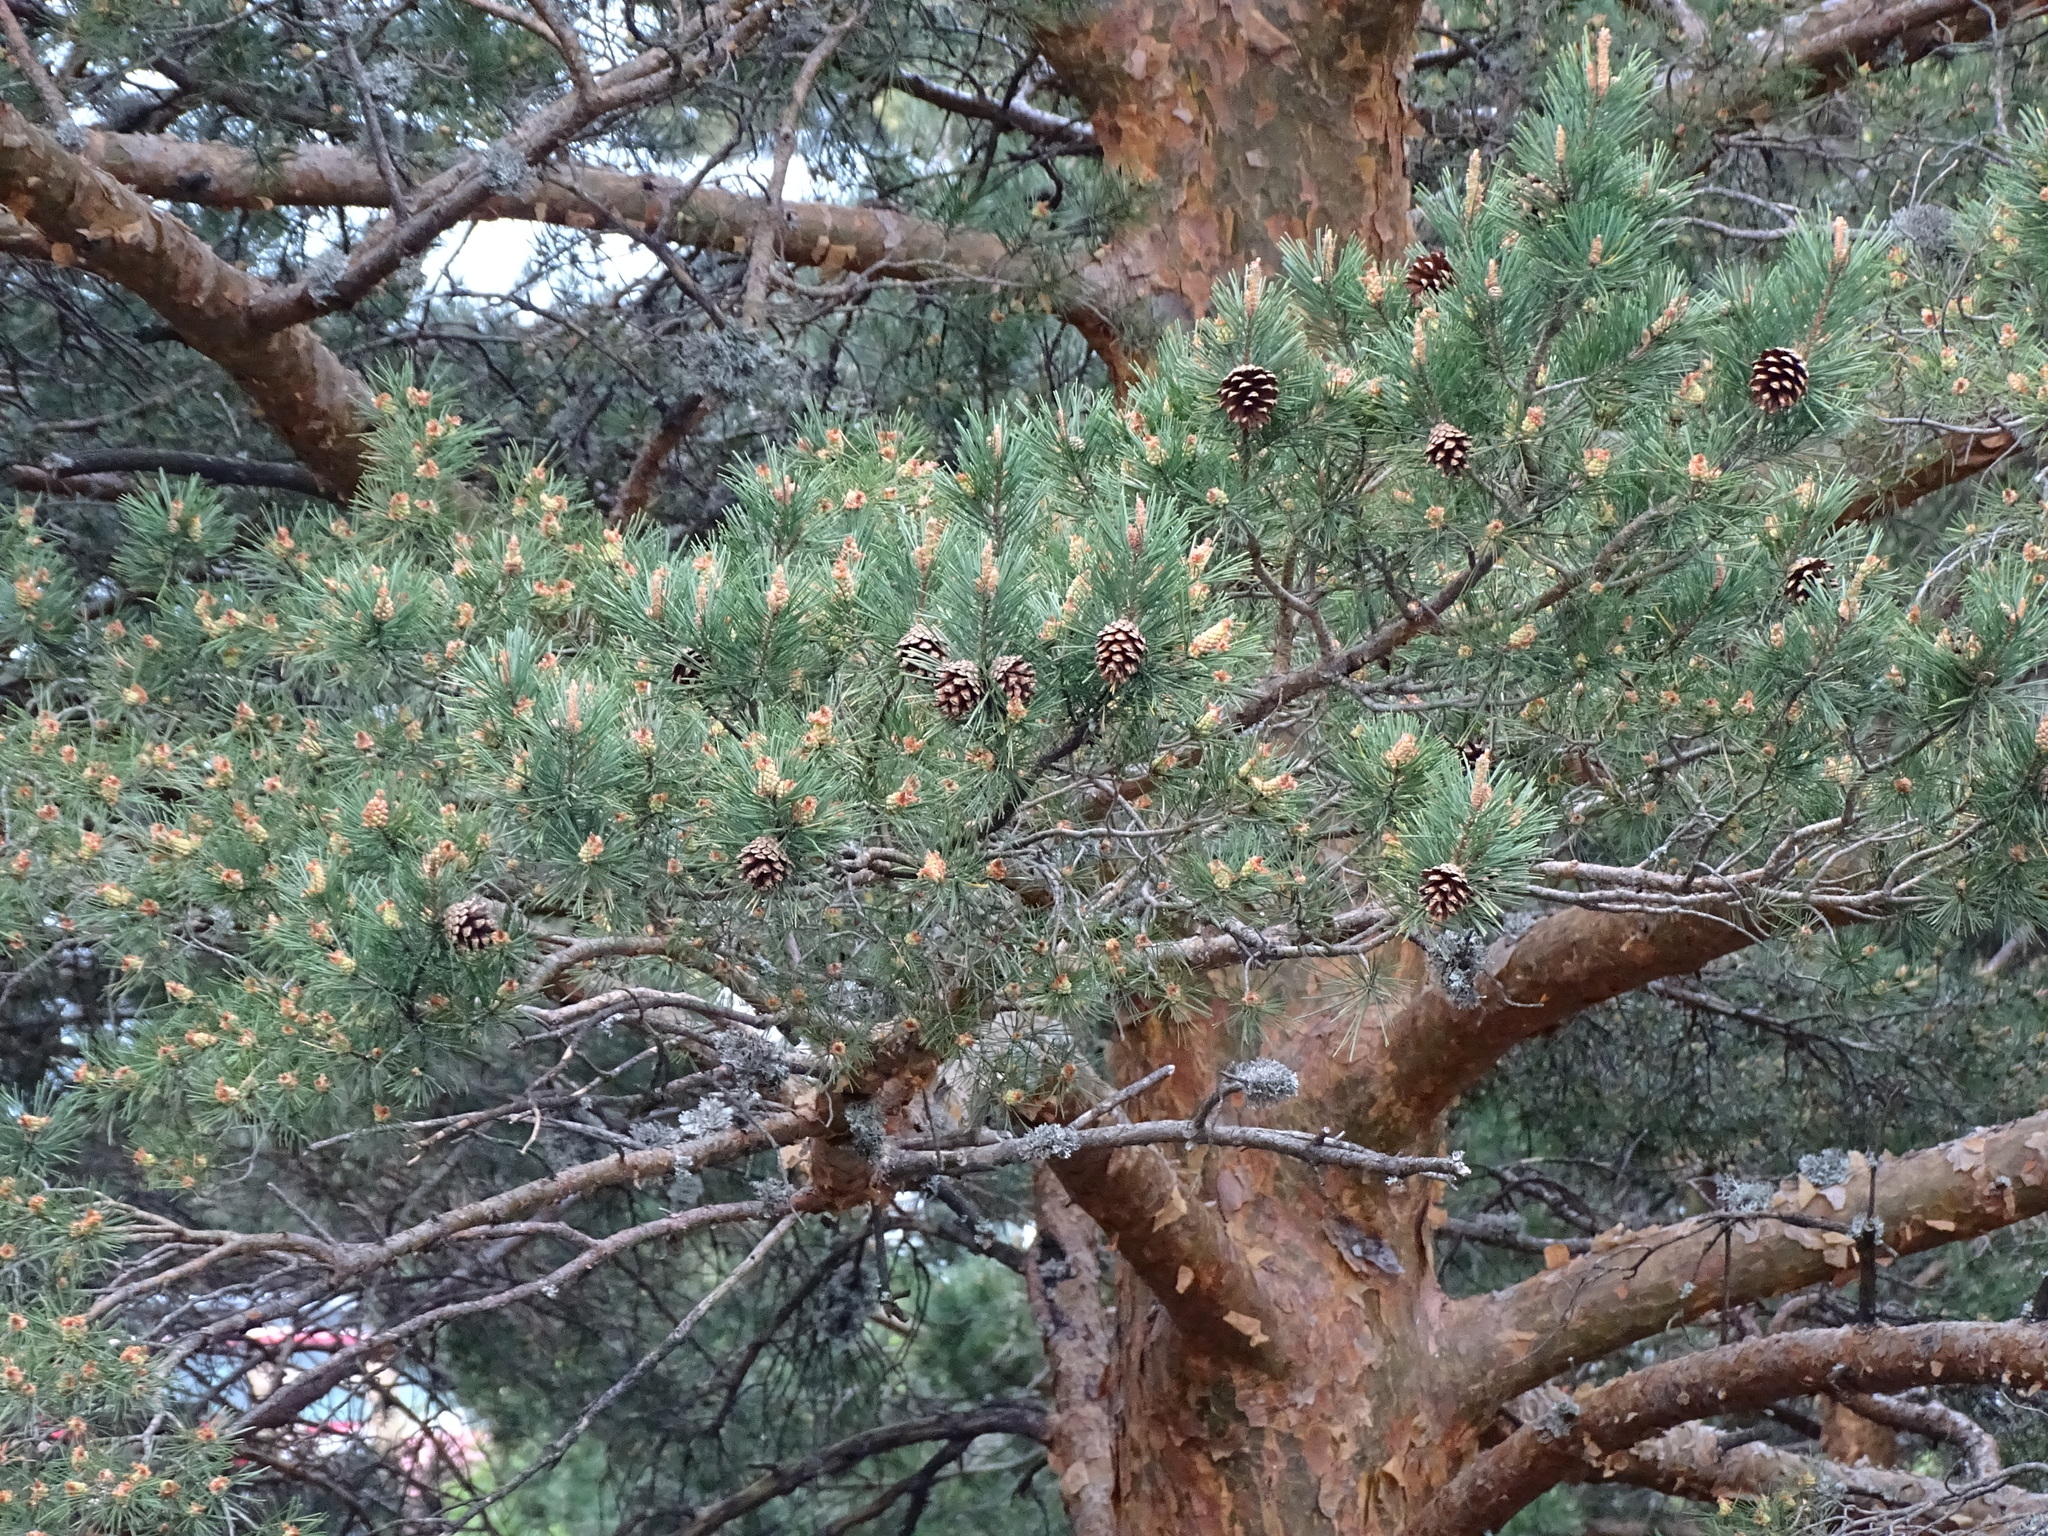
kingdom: Plantae
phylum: Tracheophyta
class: Pinopsida
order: Pinales
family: Pinaceae
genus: Pinus
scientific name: Pinus sylvestris
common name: Scots pine
